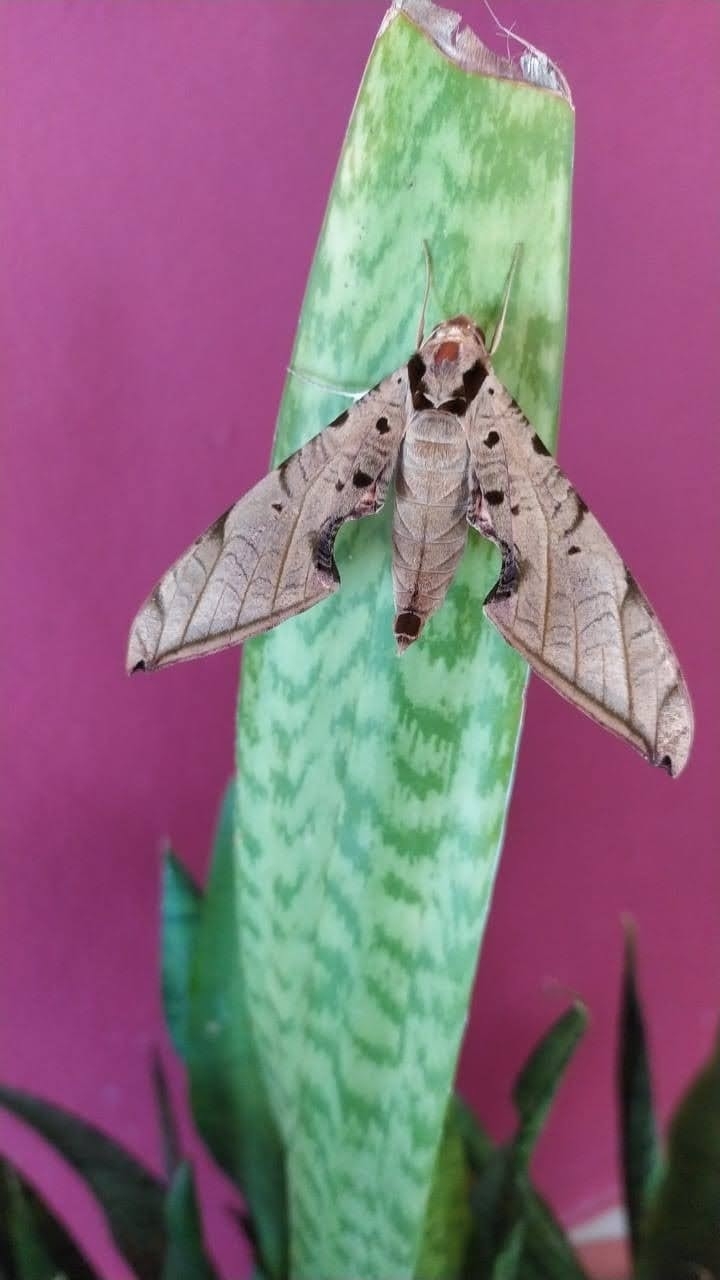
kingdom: Animalia
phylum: Arthropoda
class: Insecta
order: Lepidoptera
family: Sphingidae
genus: Protambulyx
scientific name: Protambulyx strigilis
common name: Streaked sphinx
